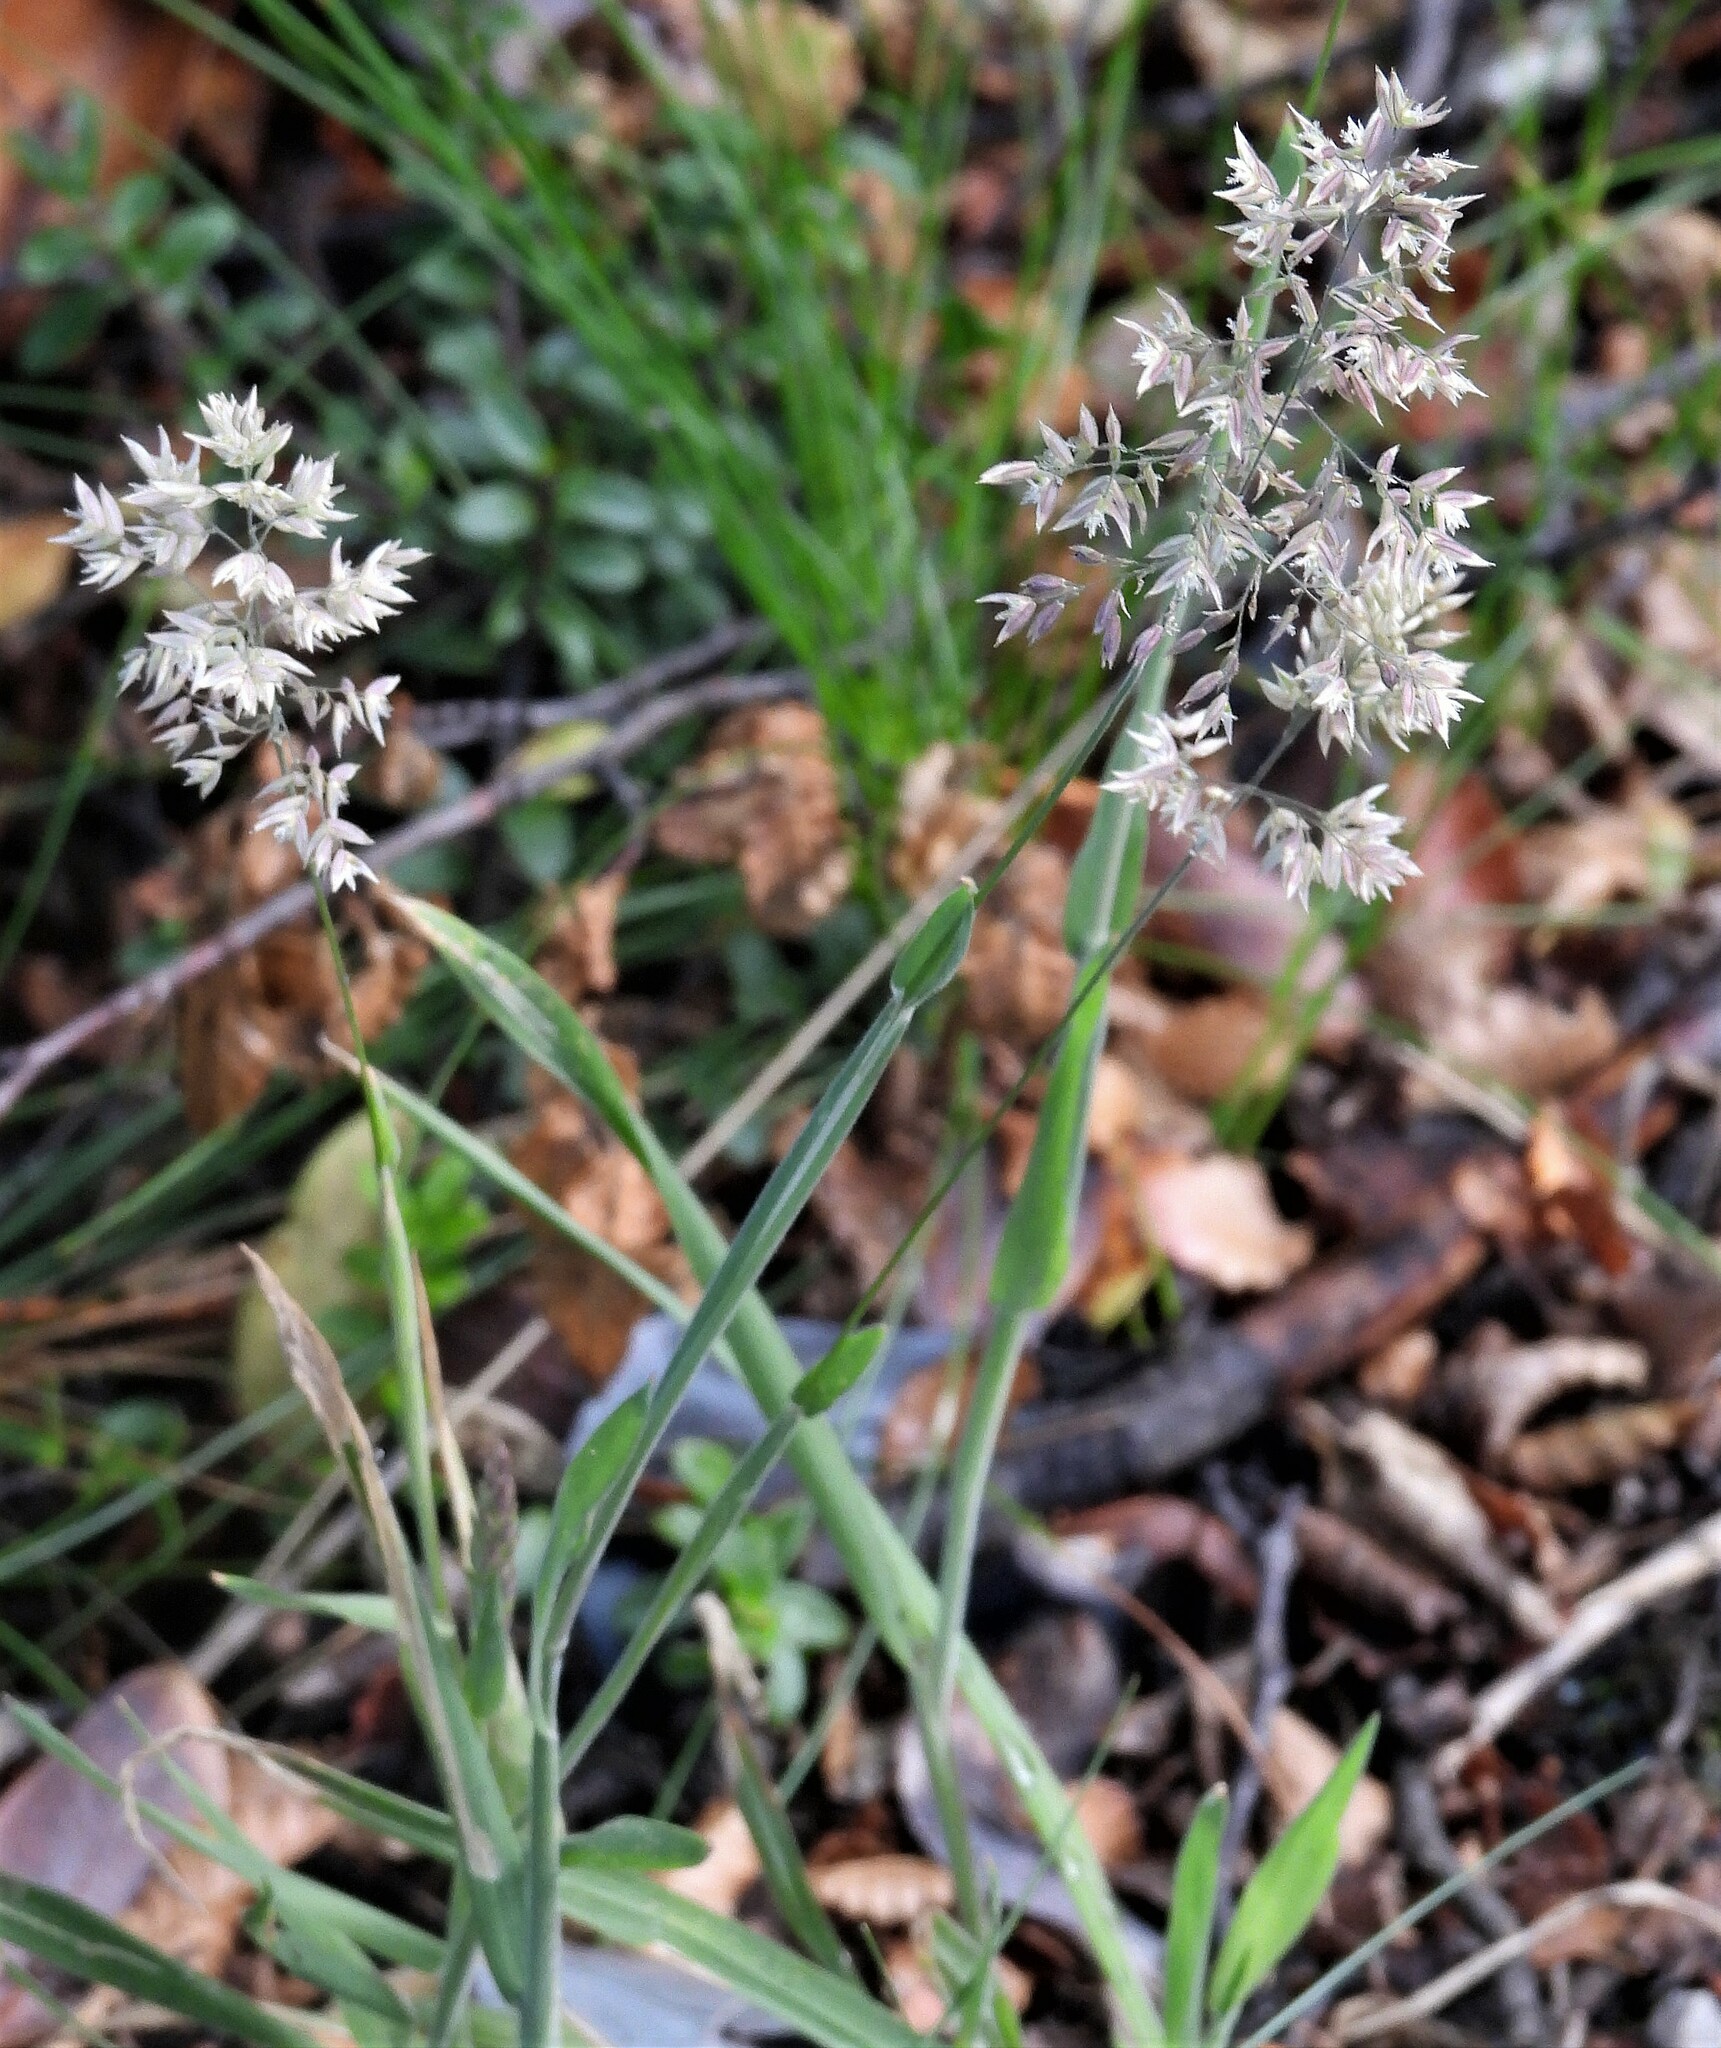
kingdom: Plantae
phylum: Tracheophyta
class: Liliopsida
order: Poales
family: Poaceae
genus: Holcus
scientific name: Holcus lanatus
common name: Yorkshire-fog
